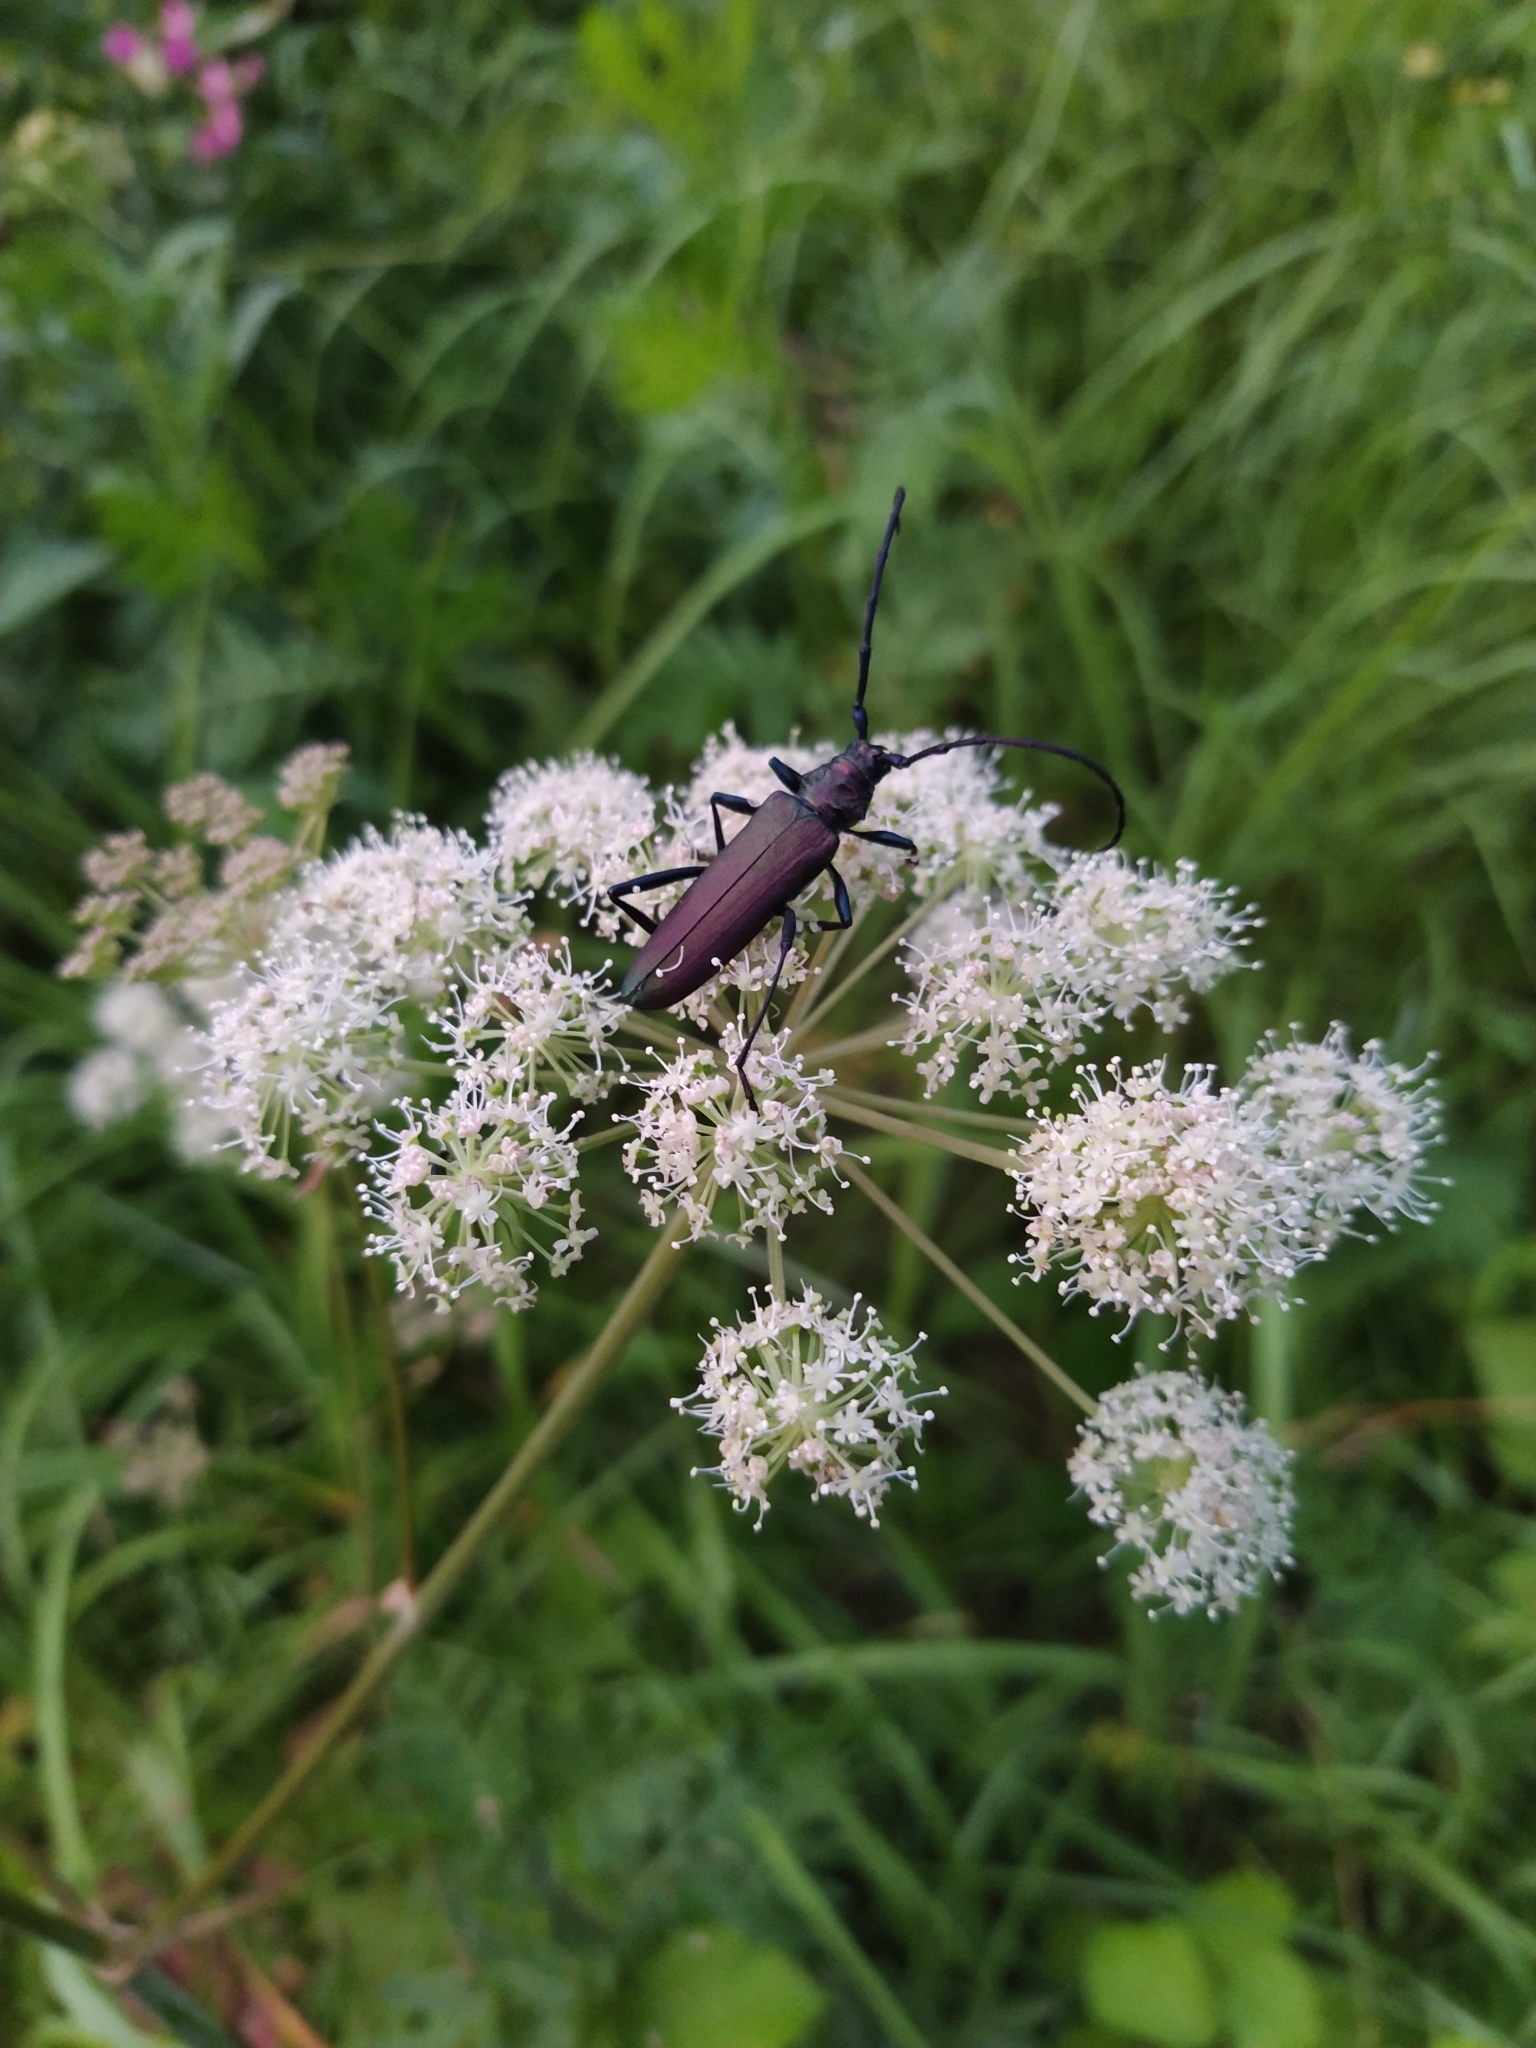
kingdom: Animalia
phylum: Arthropoda
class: Insecta
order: Coleoptera
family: Cerambycidae
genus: Aromia
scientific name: Aromia moschata
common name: Musk beetle
